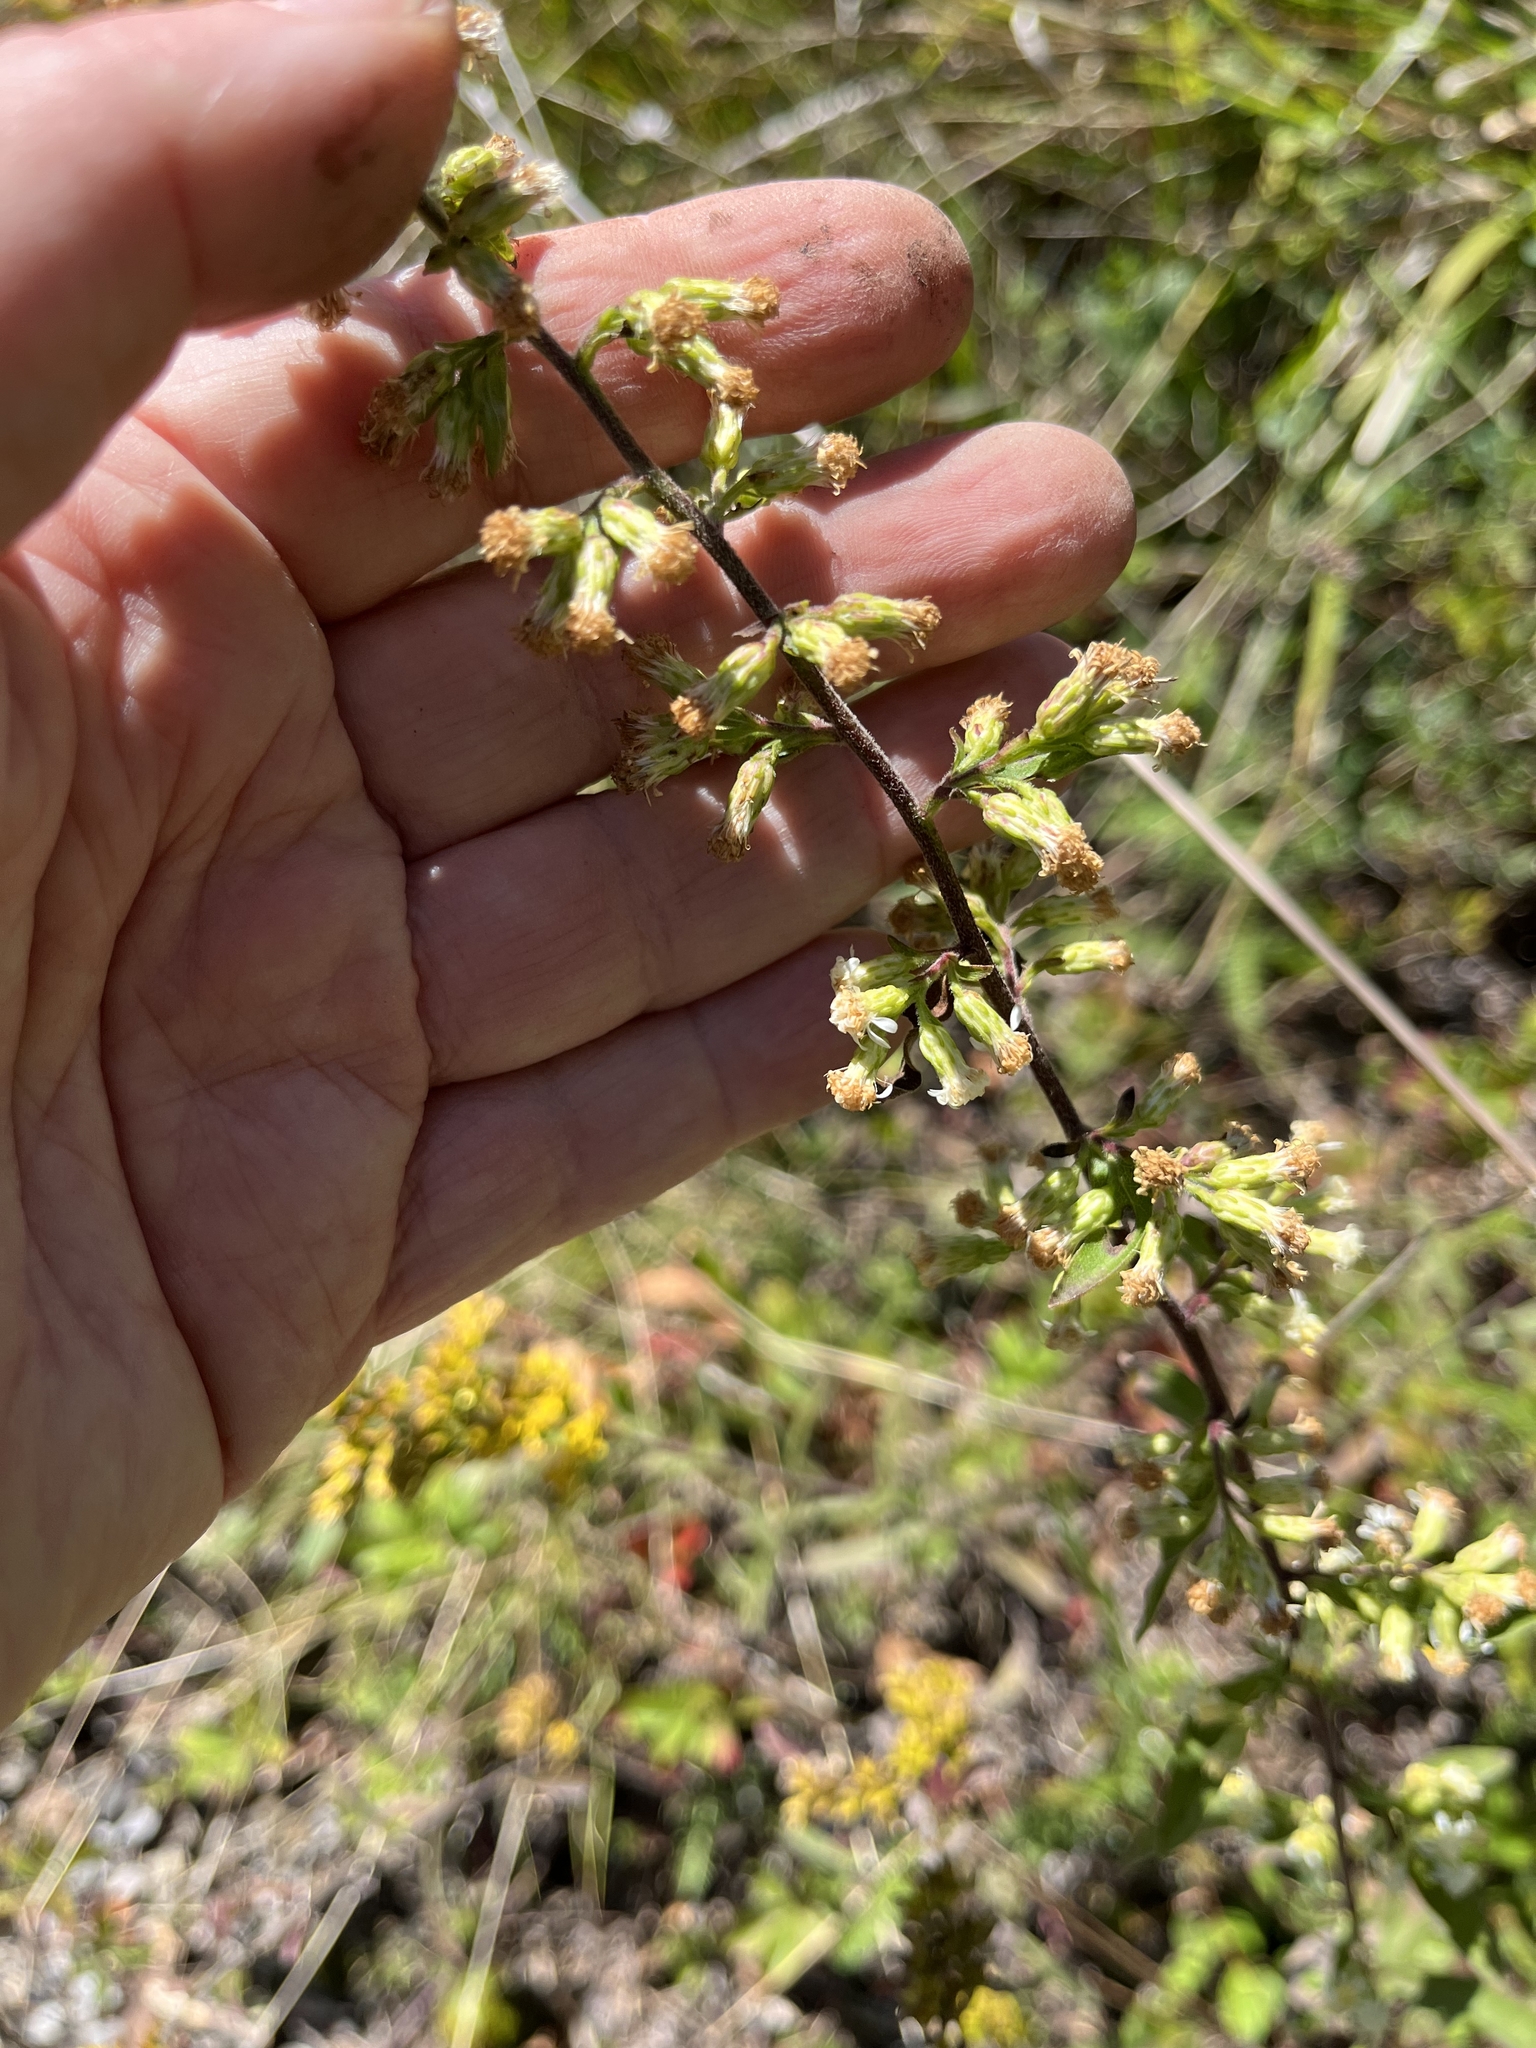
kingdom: Plantae
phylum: Tracheophyta
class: Magnoliopsida
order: Asterales
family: Asteraceae
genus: Solidago
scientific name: Solidago bicolor
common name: Silverrod
